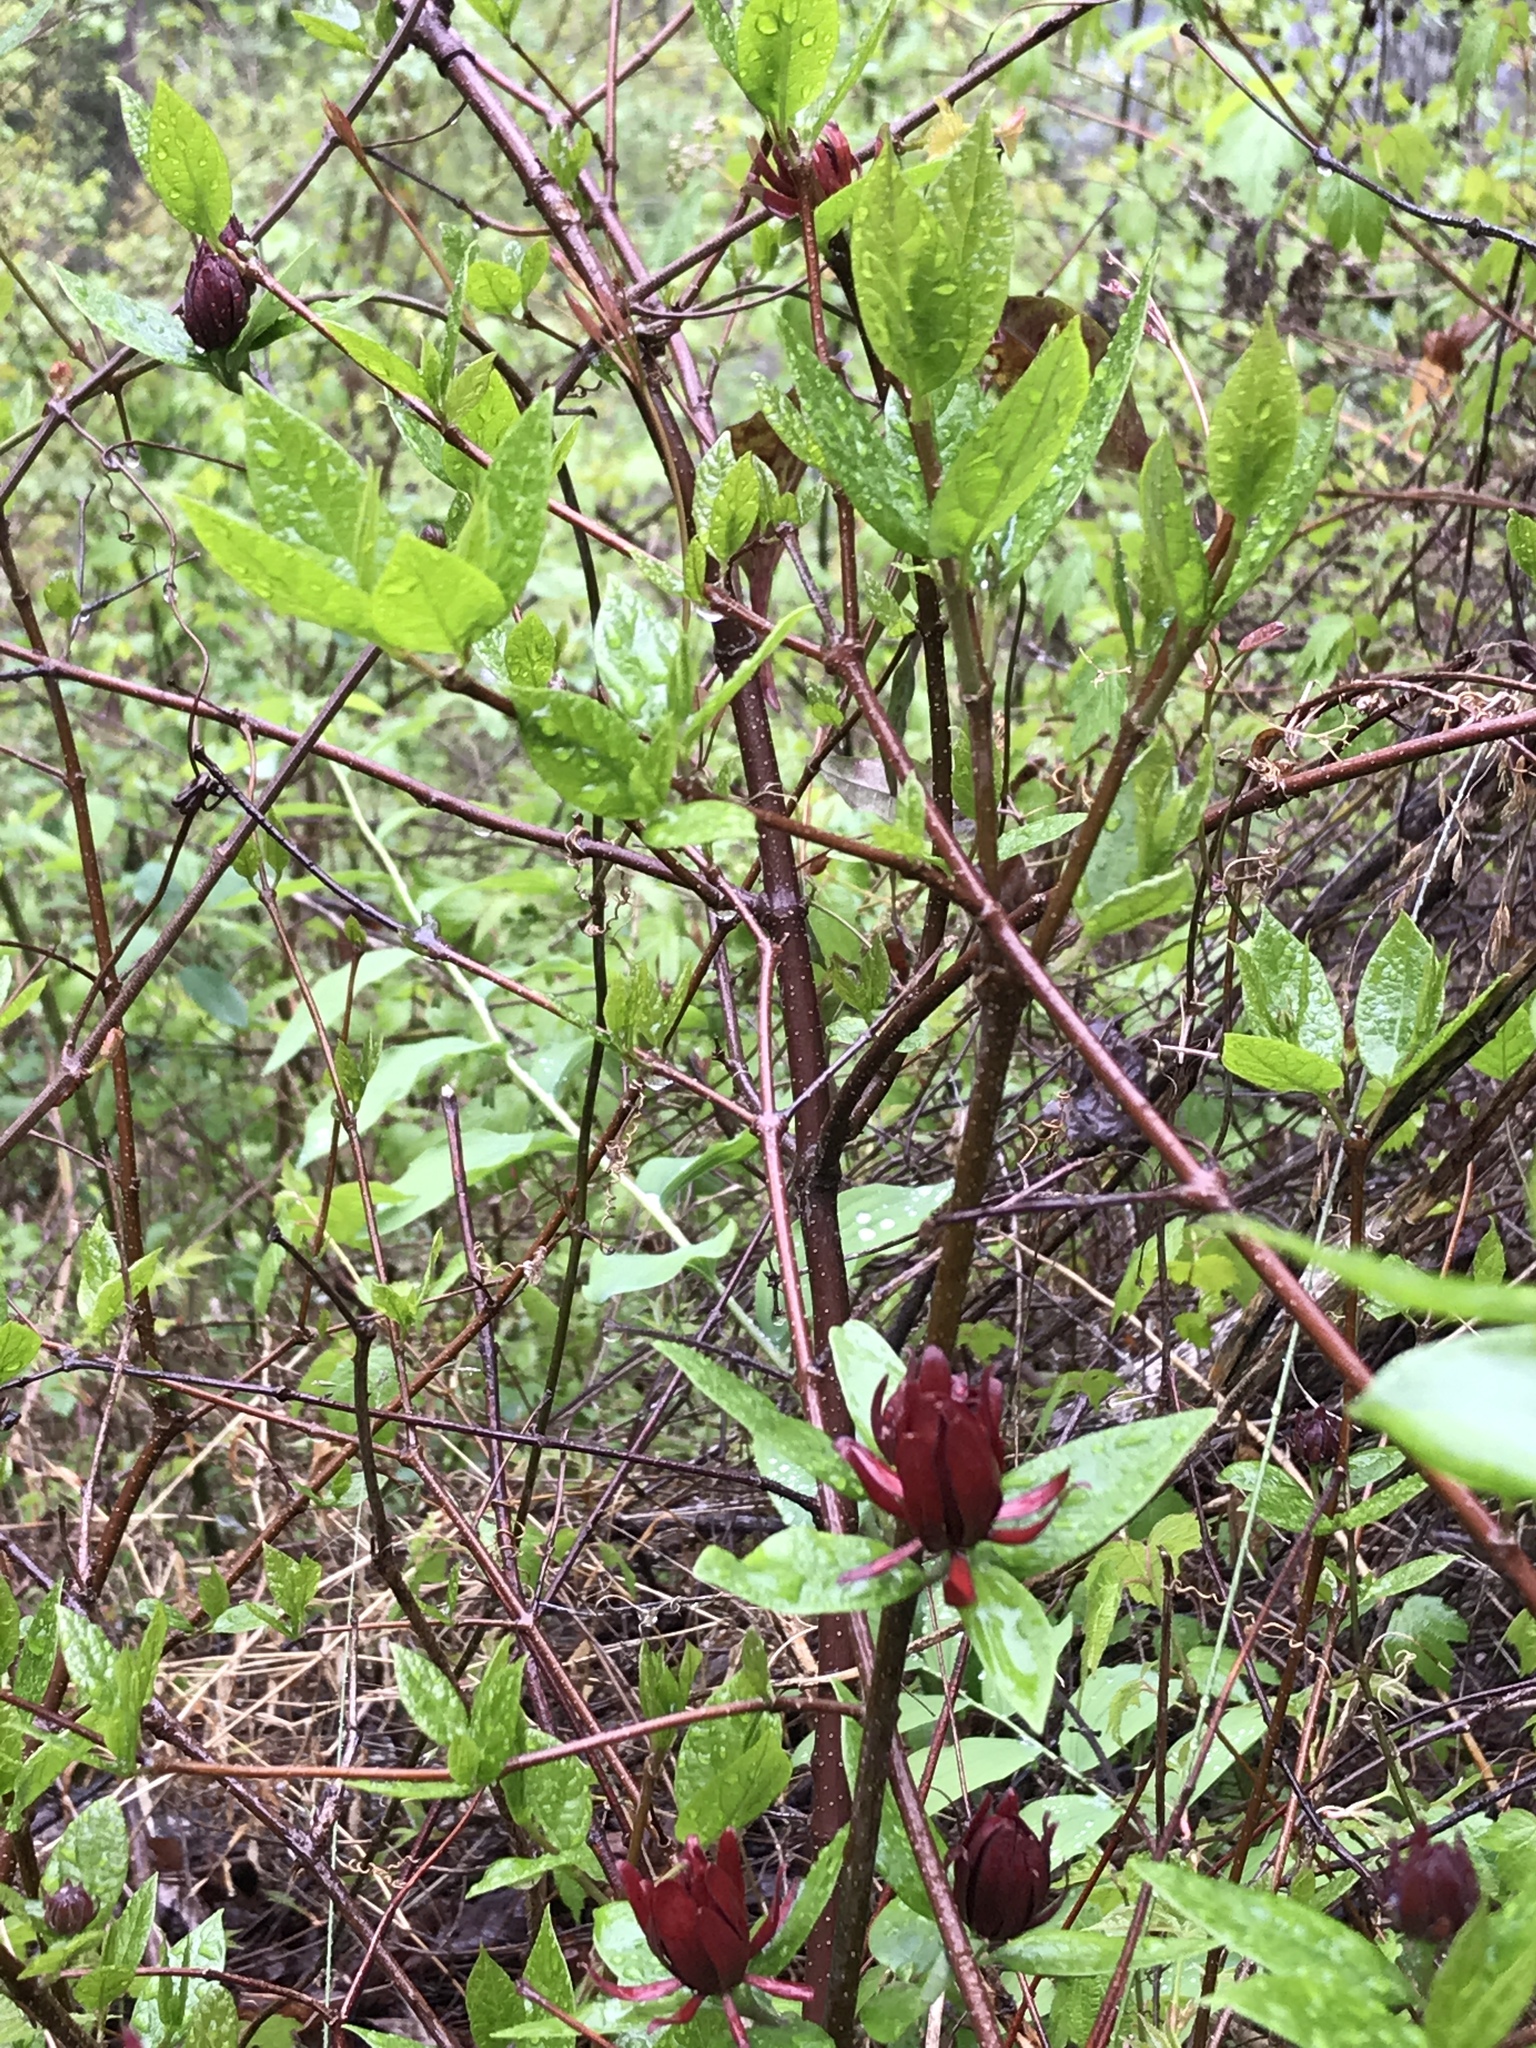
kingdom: Plantae
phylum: Tracheophyta
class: Magnoliopsida
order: Laurales
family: Calycanthaceae
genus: Calycanthus
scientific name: Calycanthus floridus
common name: Carolina-allspice
